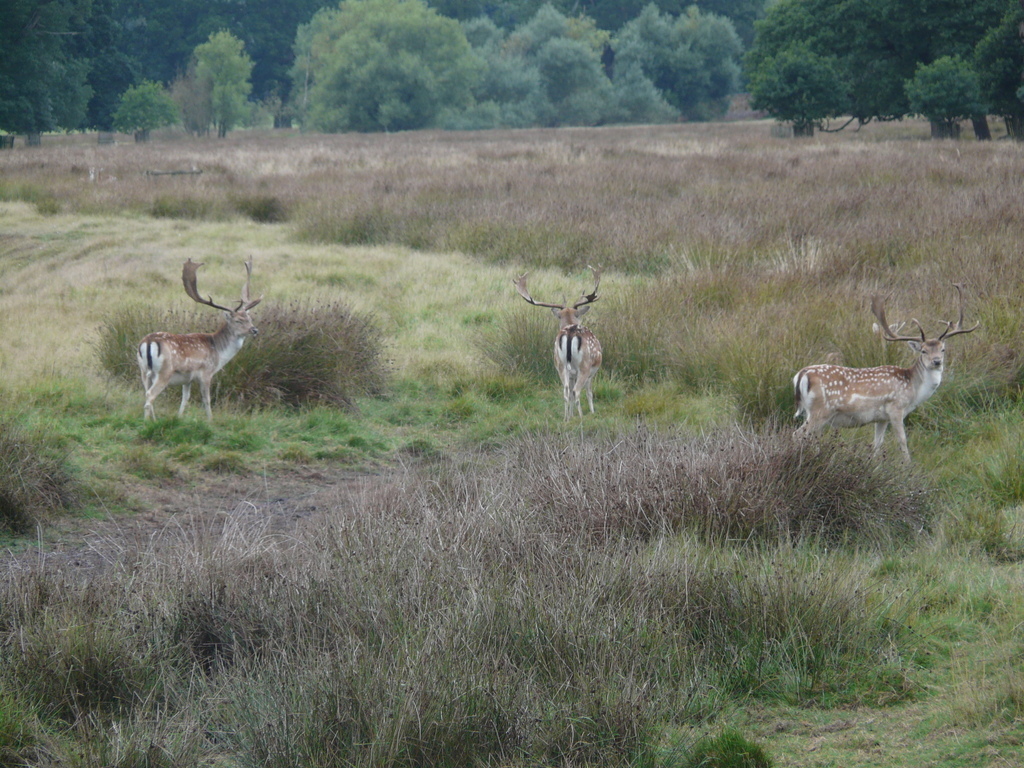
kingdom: Animalia
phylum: Chordata
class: Mammalia
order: Artiodactyla
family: Cervidae
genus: Dama
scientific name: Dama dama
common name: Fallow deer
